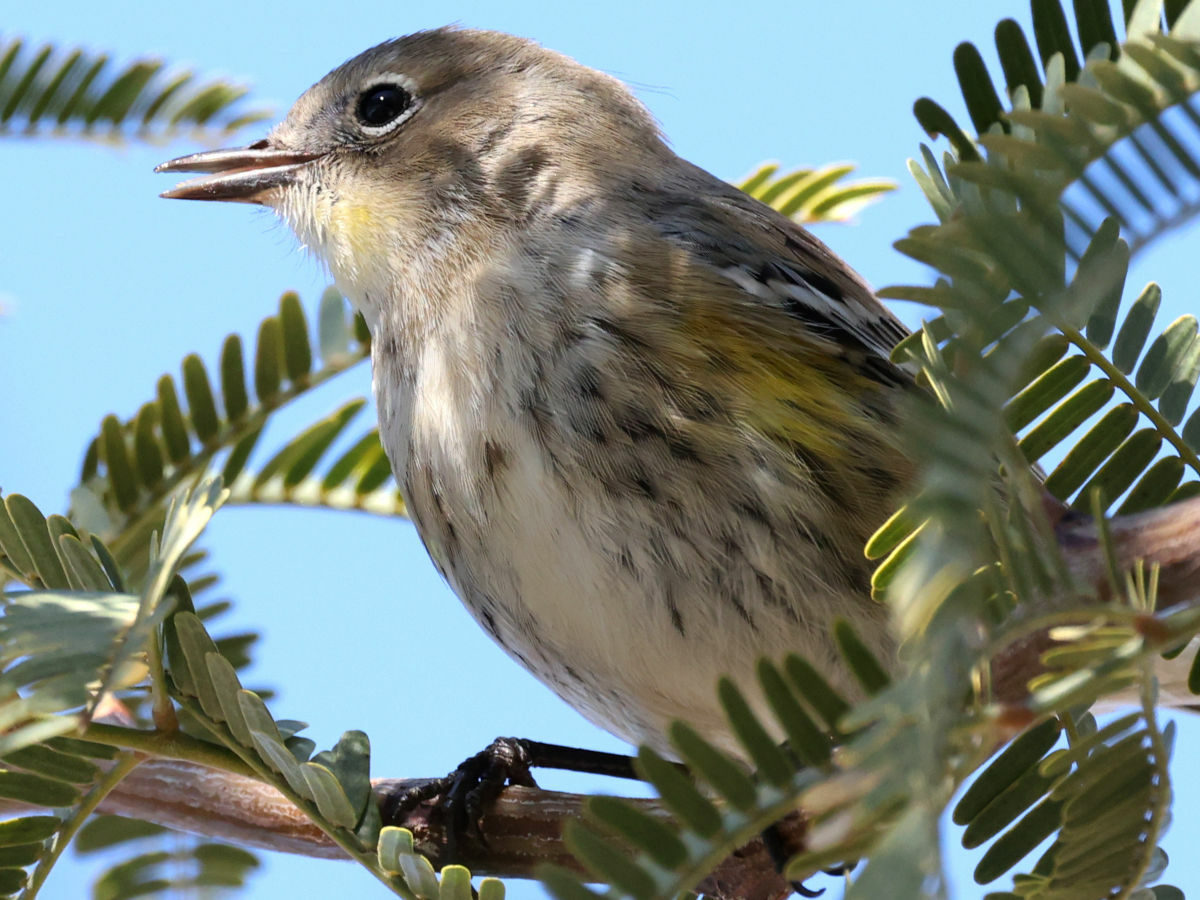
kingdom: Animalia
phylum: Chordata
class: Aves
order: Passeriformes
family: Parulidae
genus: Setophaga
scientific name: Setophaga coronata
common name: Myrtle warbler
